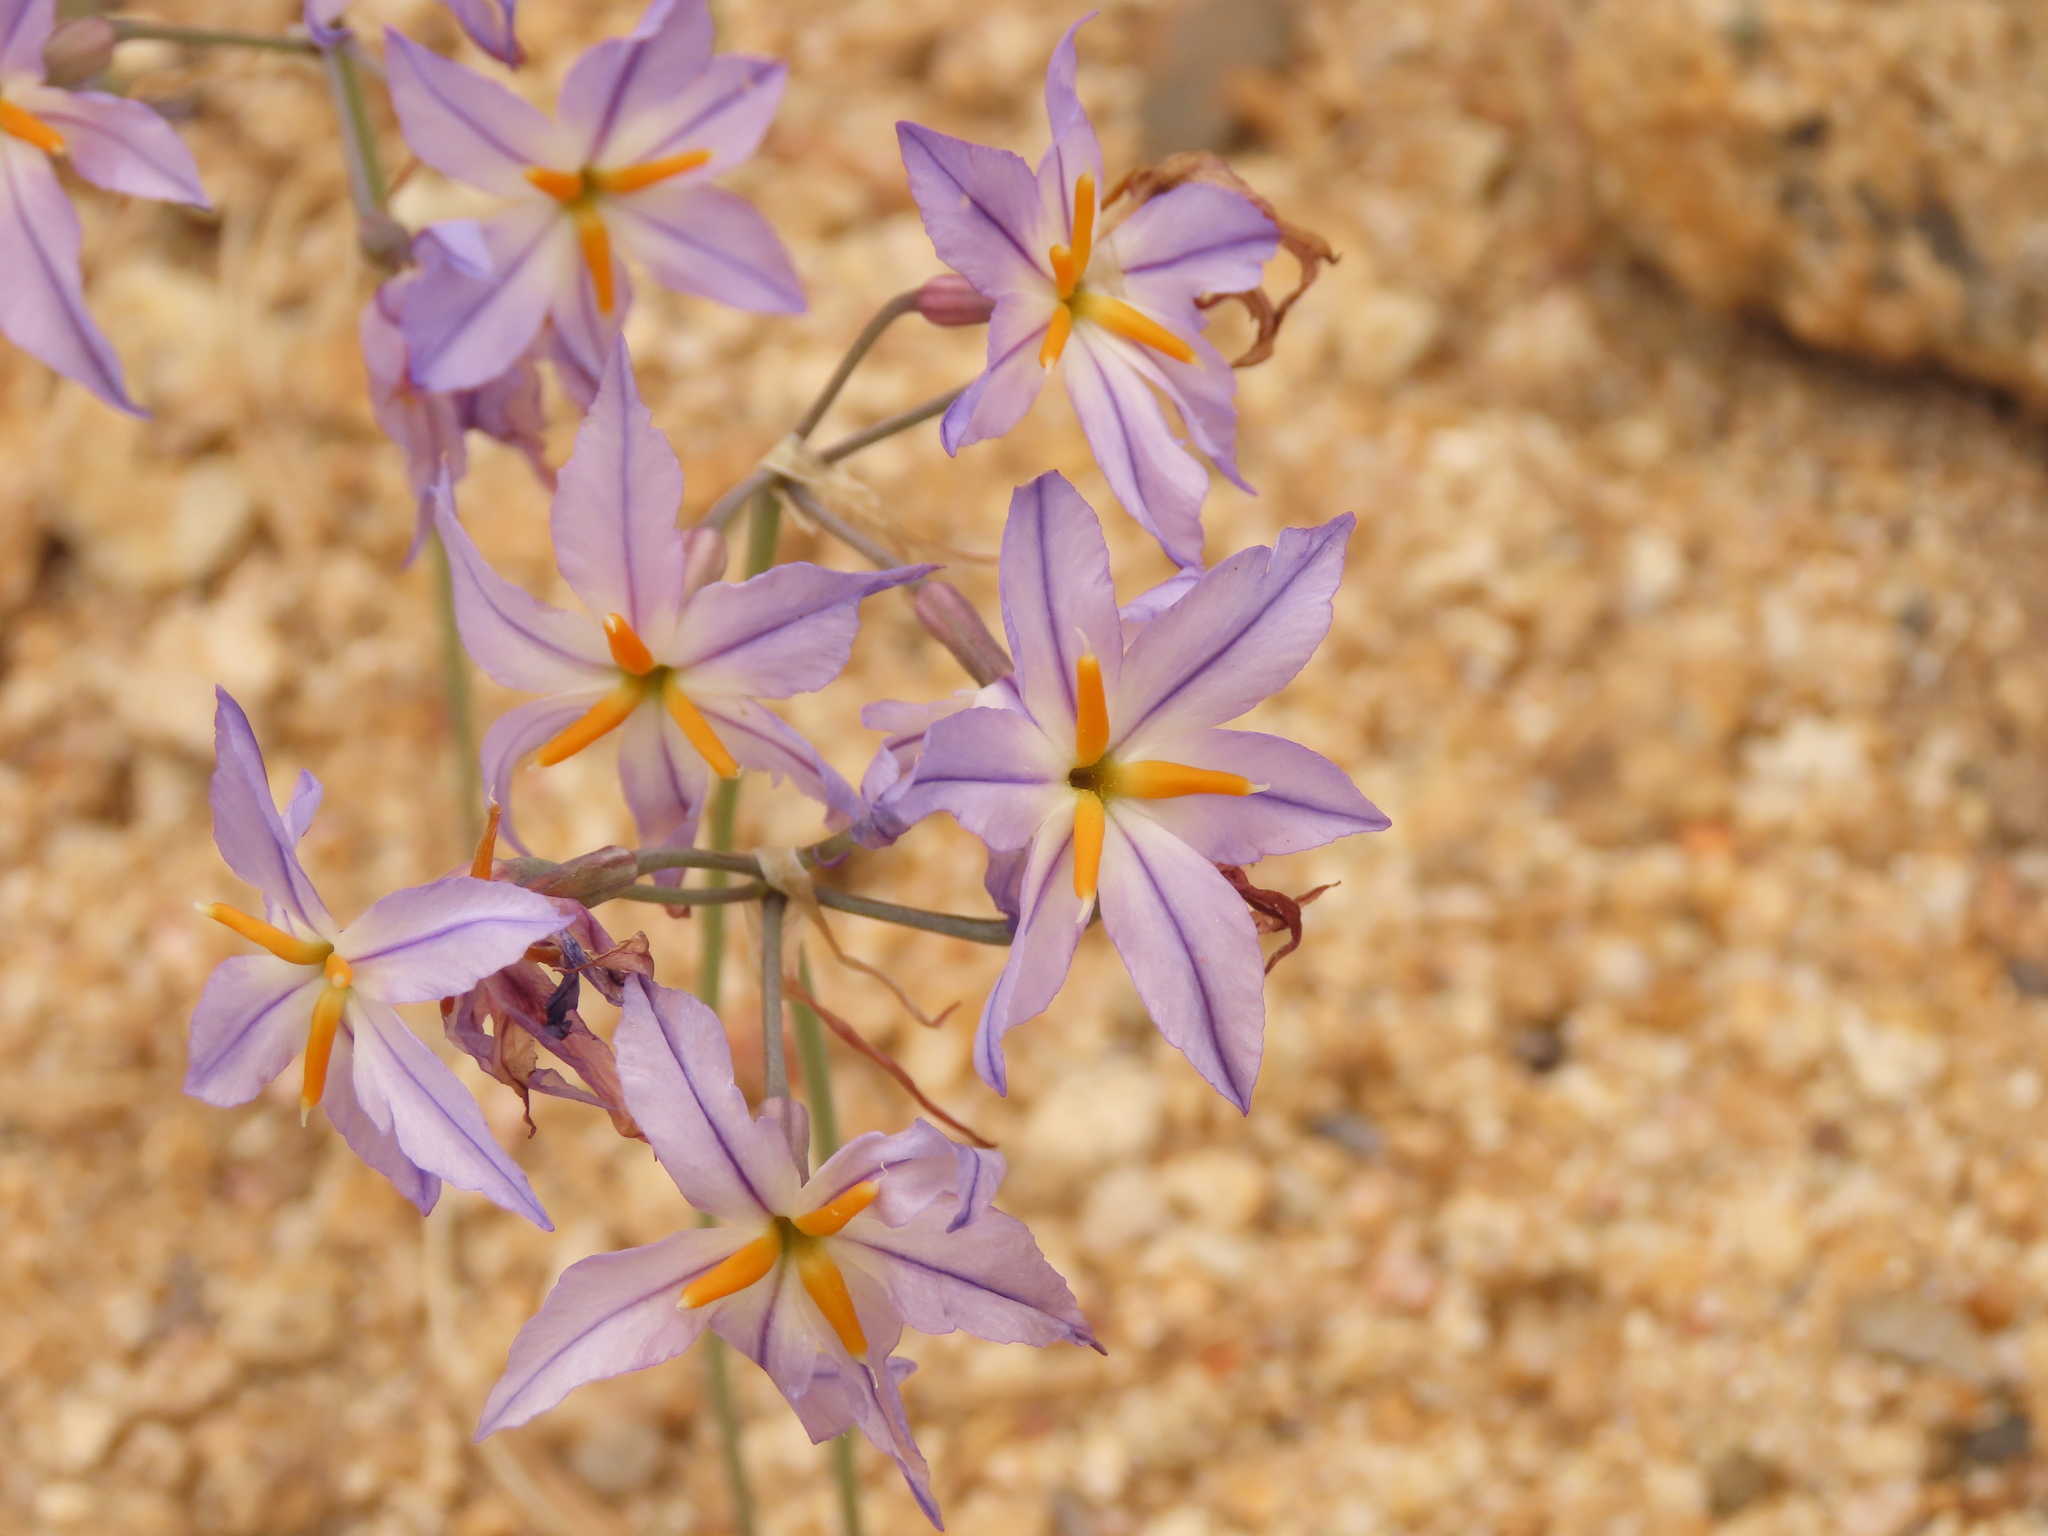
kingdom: Plantae
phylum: Tracheophyta
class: Liliopsida
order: Asparagales
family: Amaryllidaceae
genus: Leucocoryne
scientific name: Leucocoryne appendiculata
